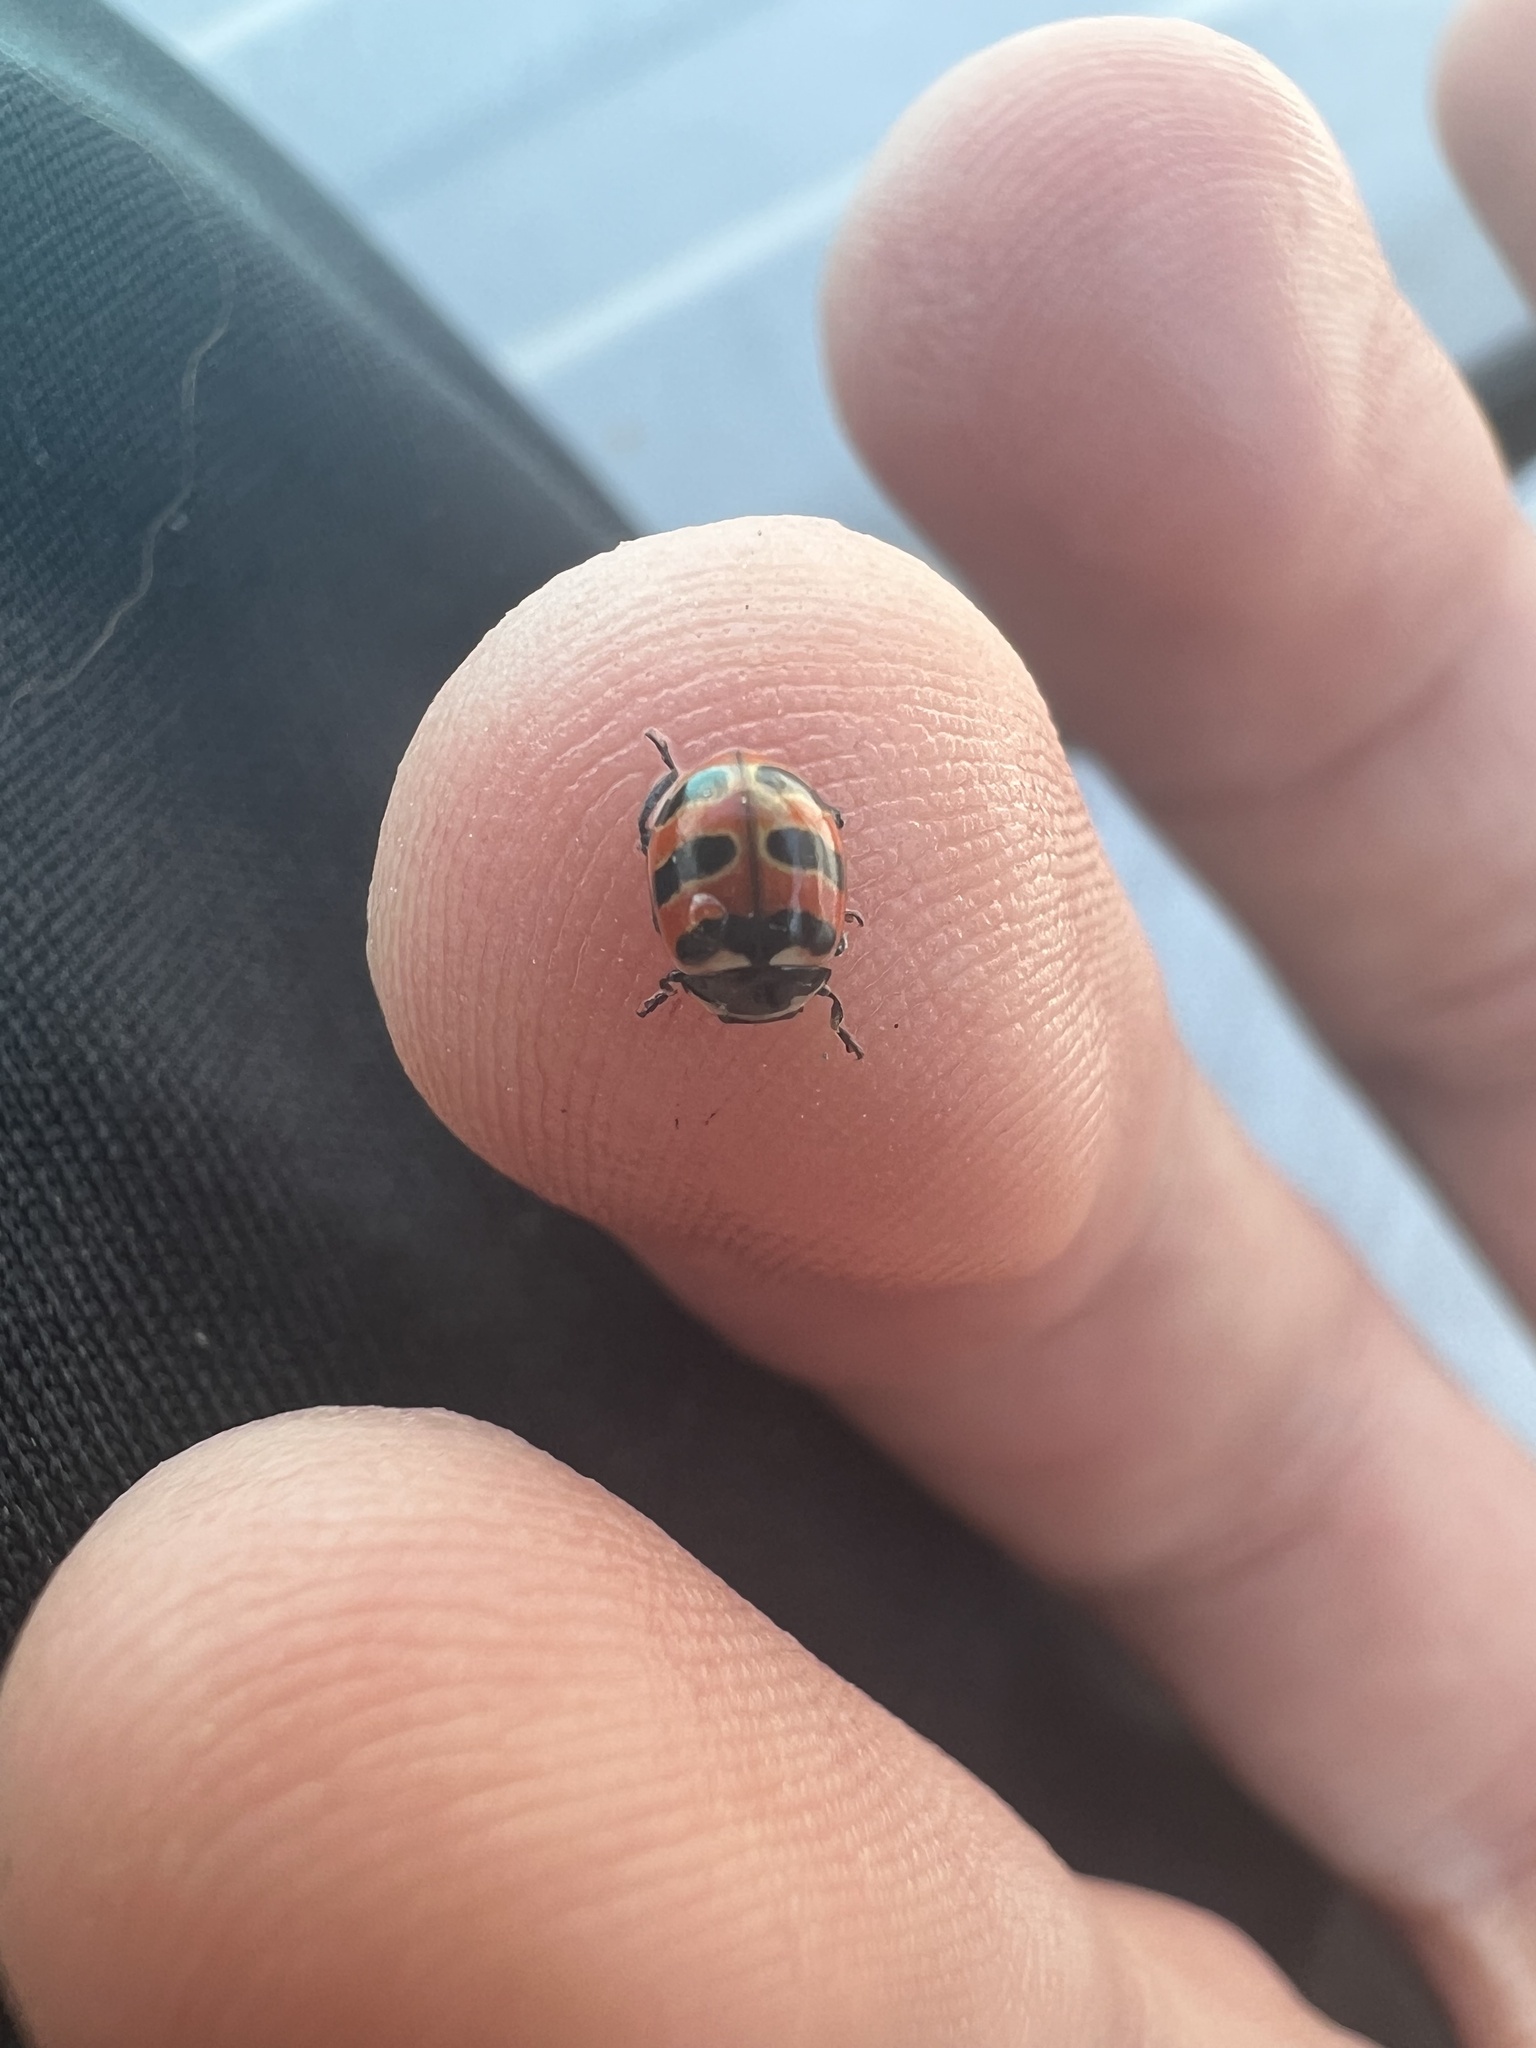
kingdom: Animalia
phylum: Arthropoda
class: Insecta
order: Coleoptera
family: Coccinellidae
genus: Coccinella
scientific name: Coccinella trifasciata
